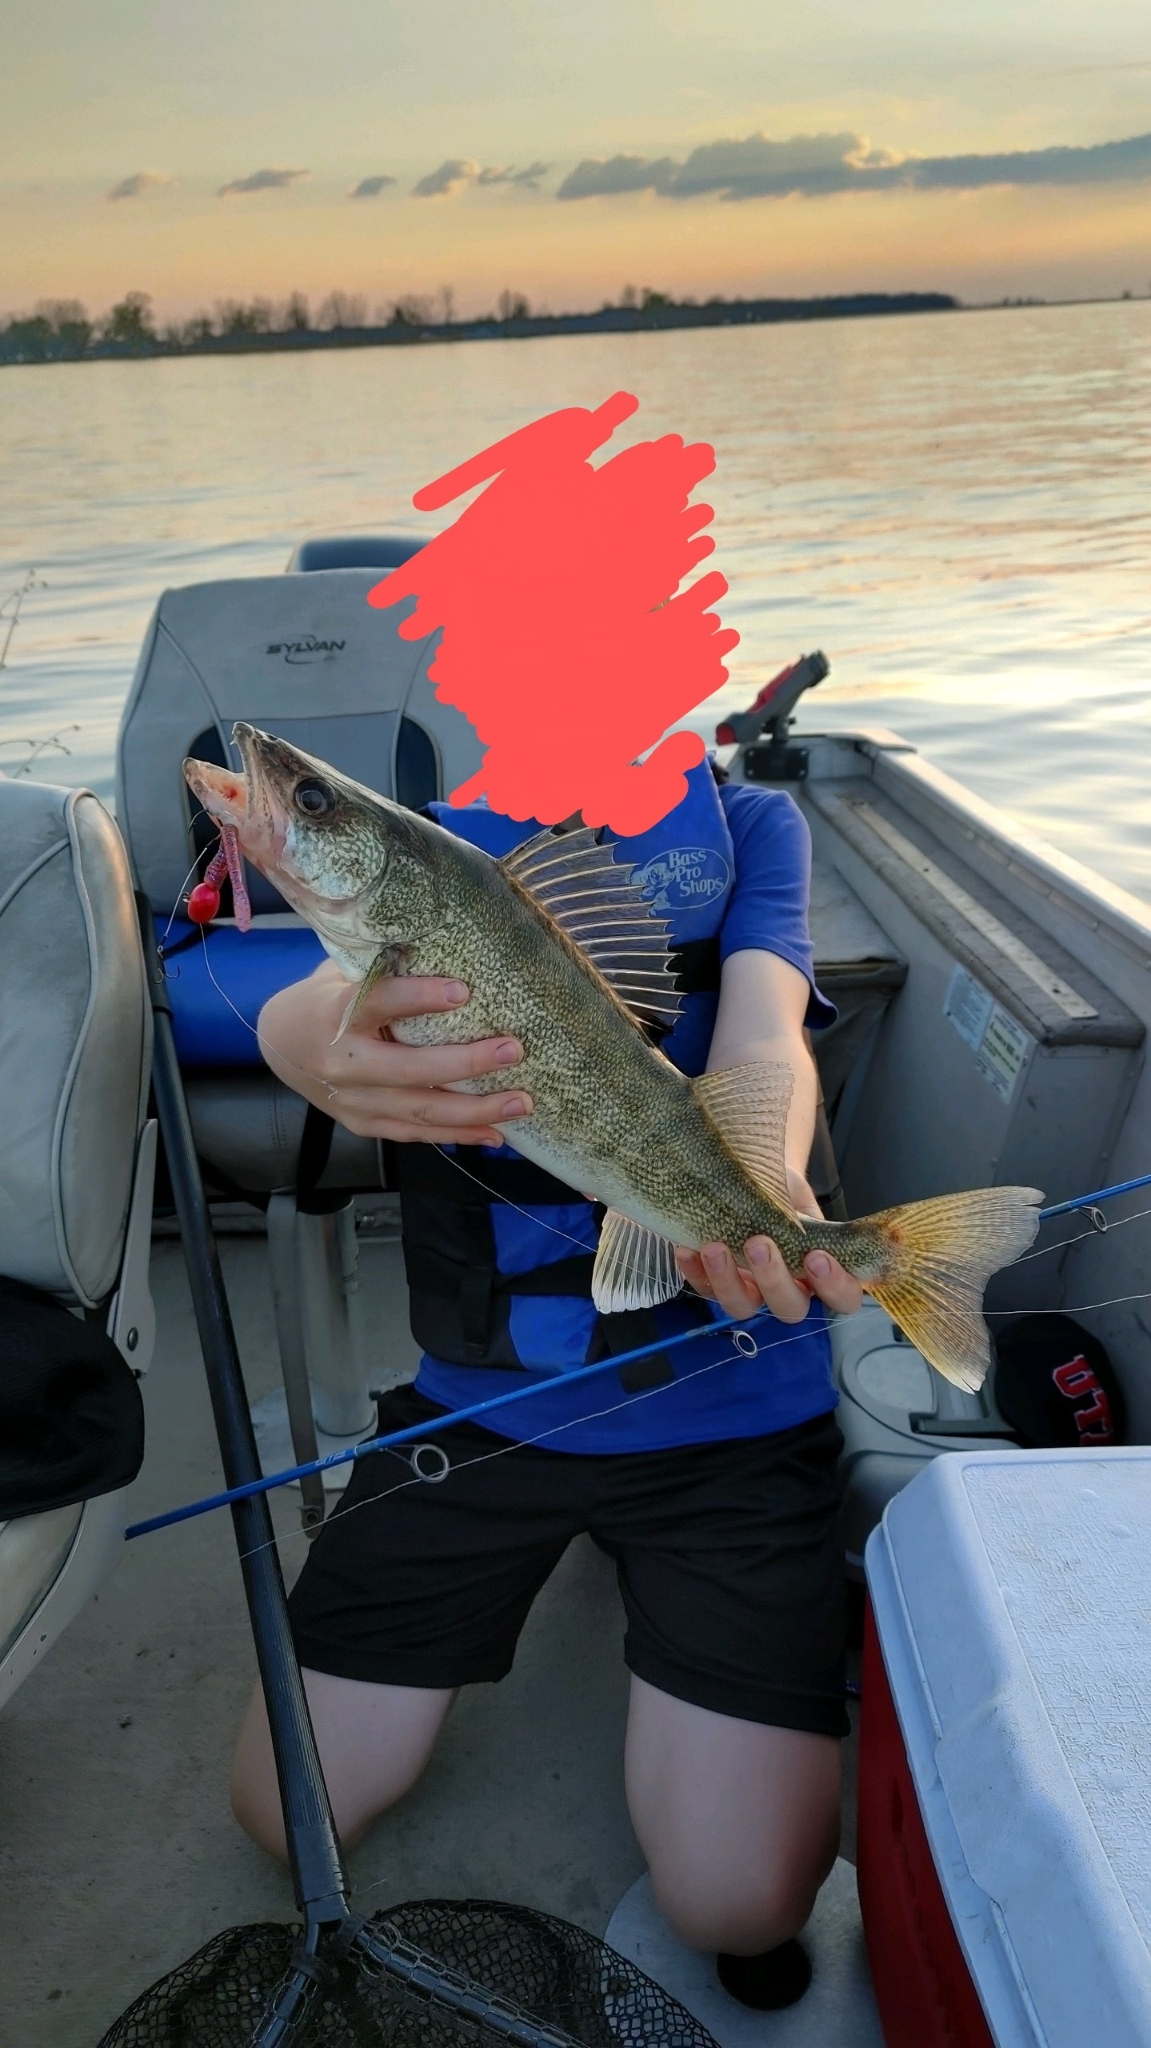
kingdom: Animalia
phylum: Chordata
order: Perciformes
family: Percidae
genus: Sander
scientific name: Sander vitreus
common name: Walleye
